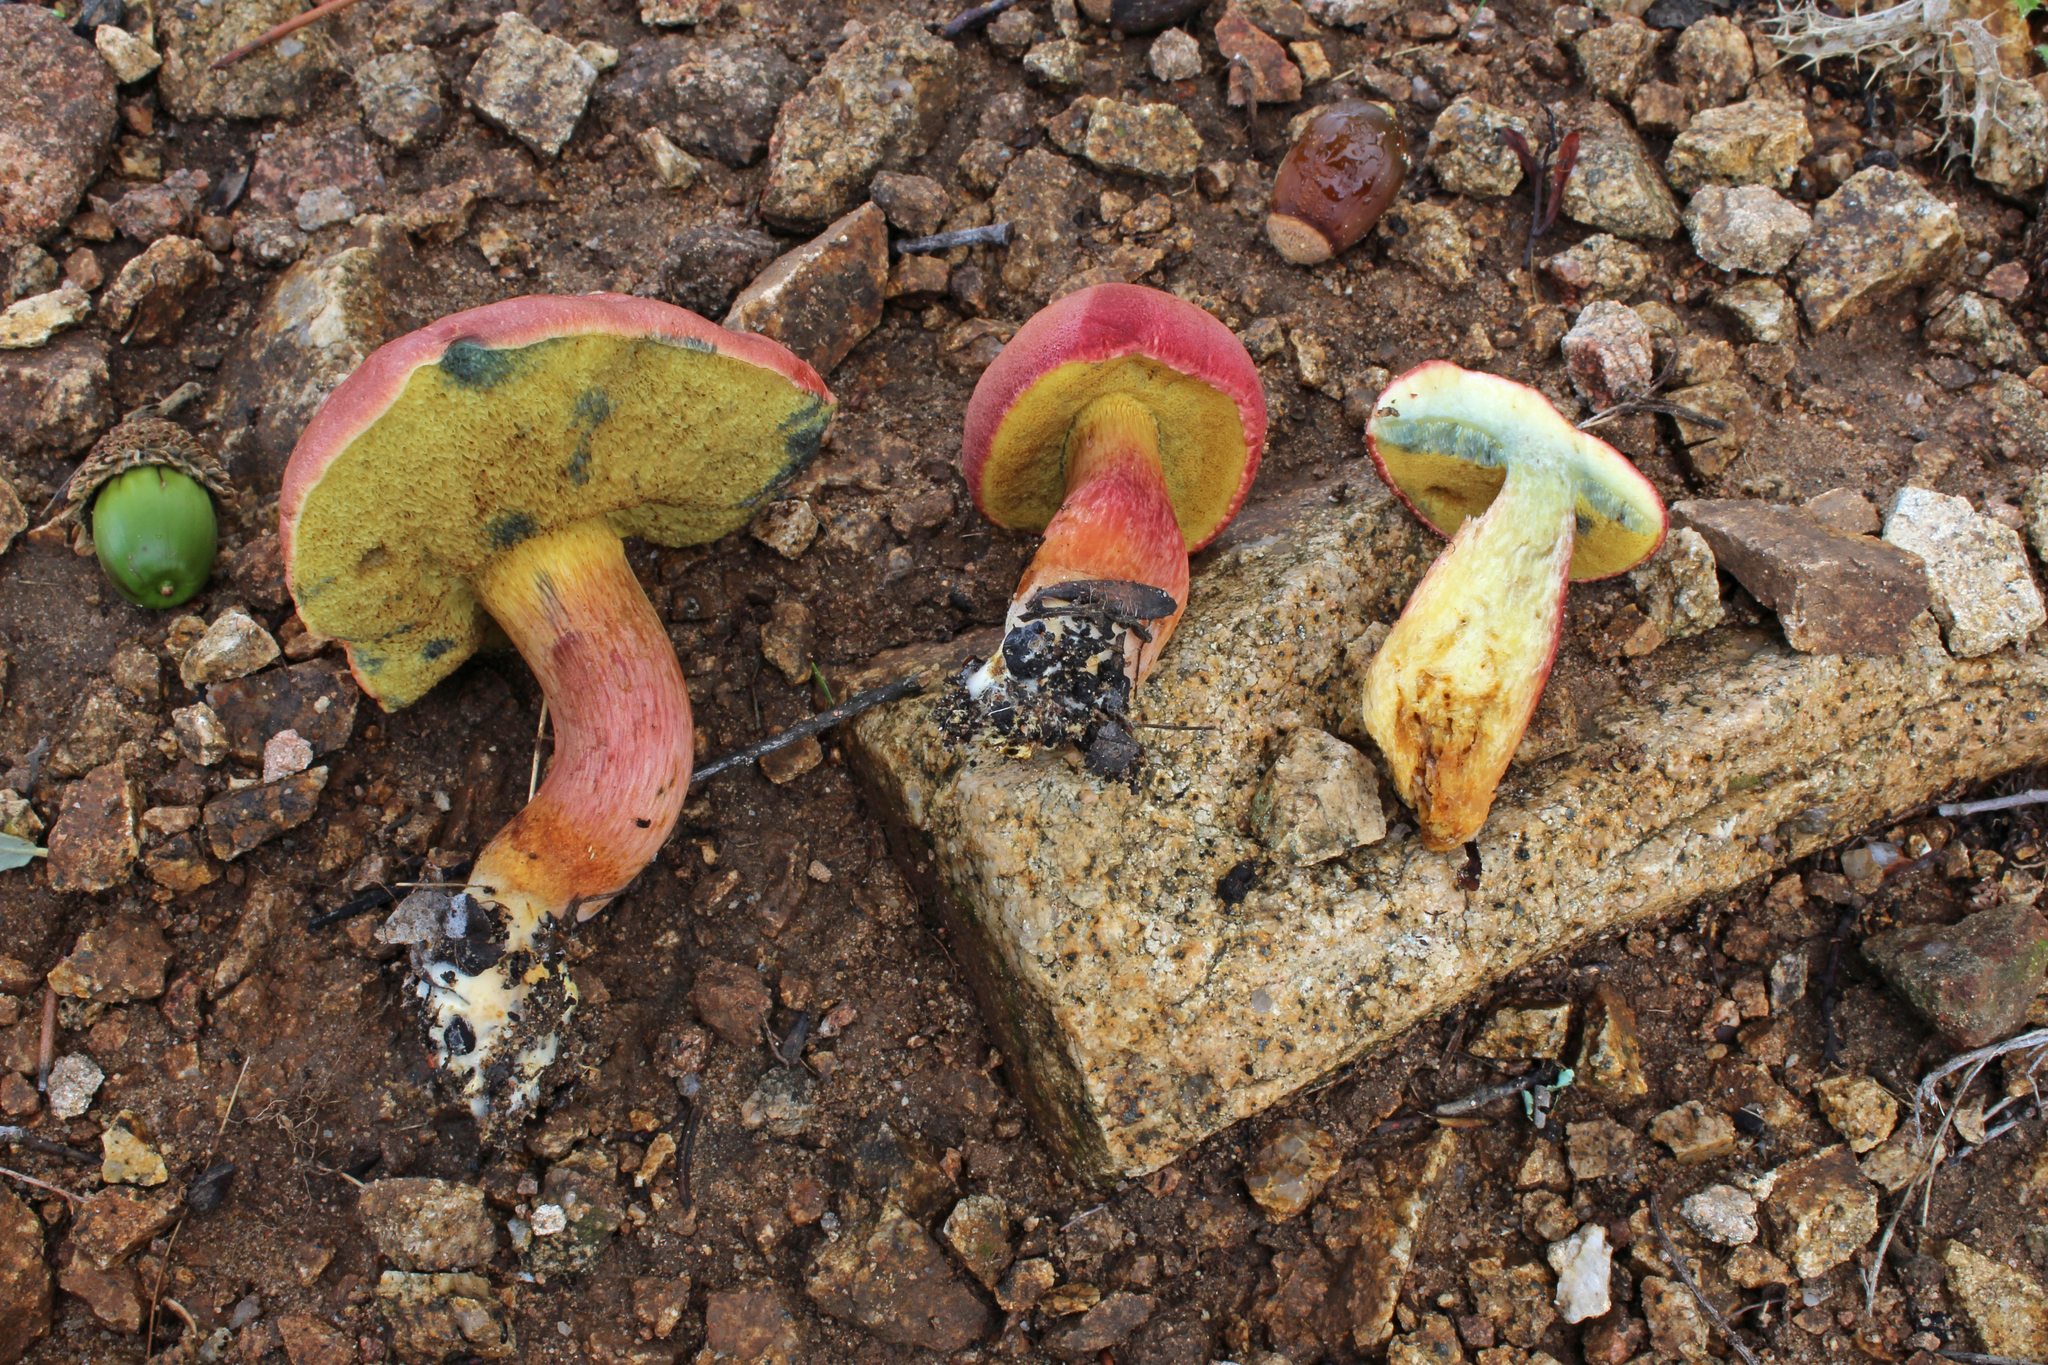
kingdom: Fungi
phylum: Basidiomycota
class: Agaricomycetes
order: Boletales
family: Boletaceae
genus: Rheubarbariboletus
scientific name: Rheubarbariboletus armeniacus
